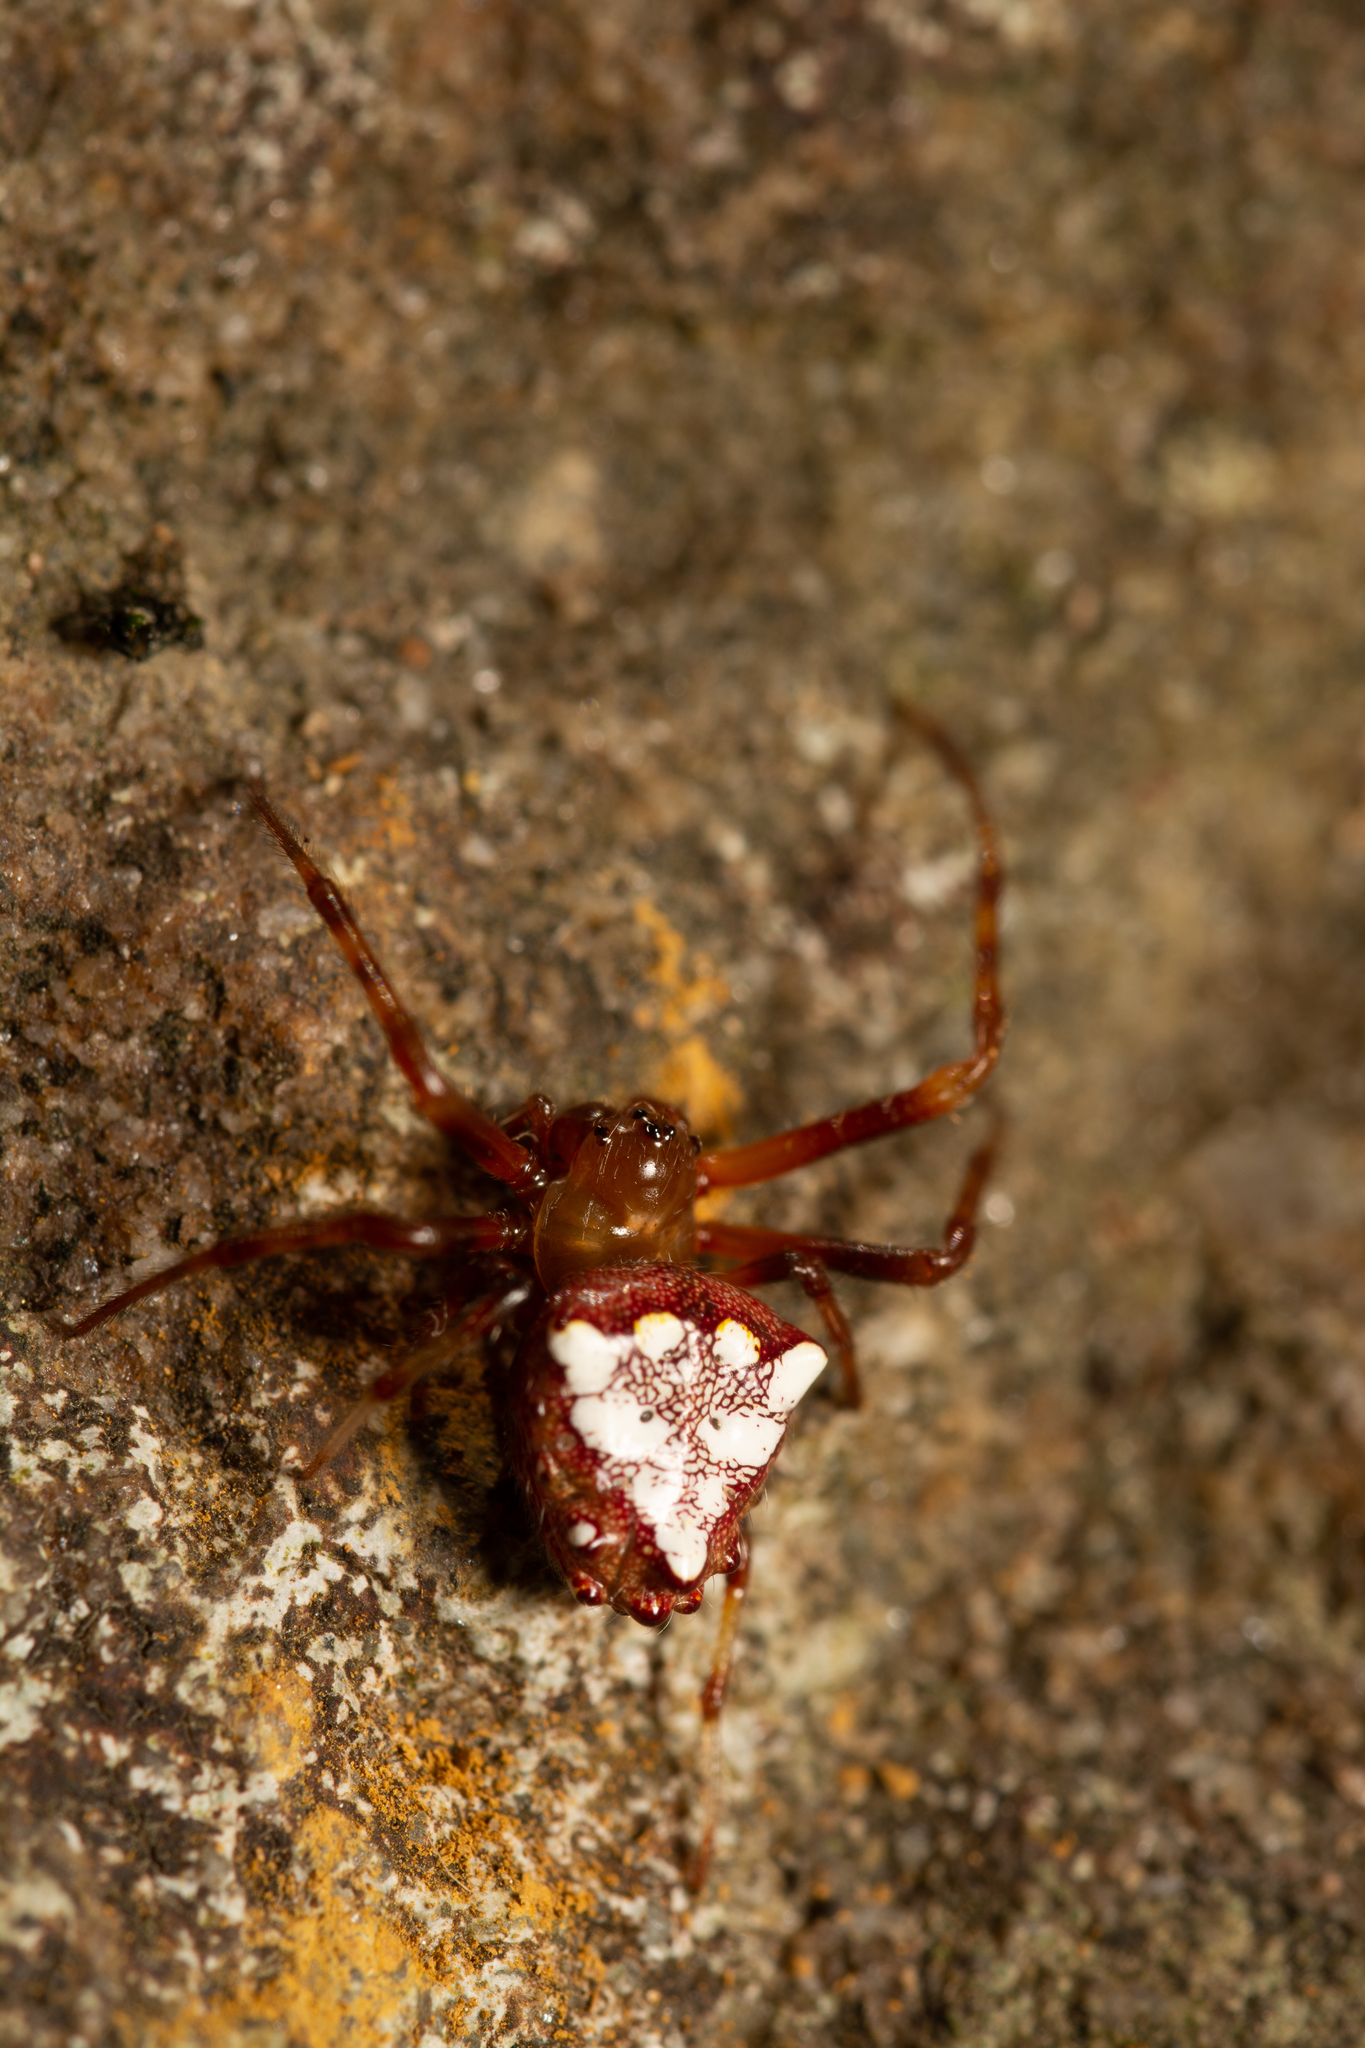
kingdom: Animalia
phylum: Arthropoda
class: Arachnida
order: Araneae
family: Araneidae
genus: Verrucosa
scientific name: Verrucosa arenata
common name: Orb weavers
